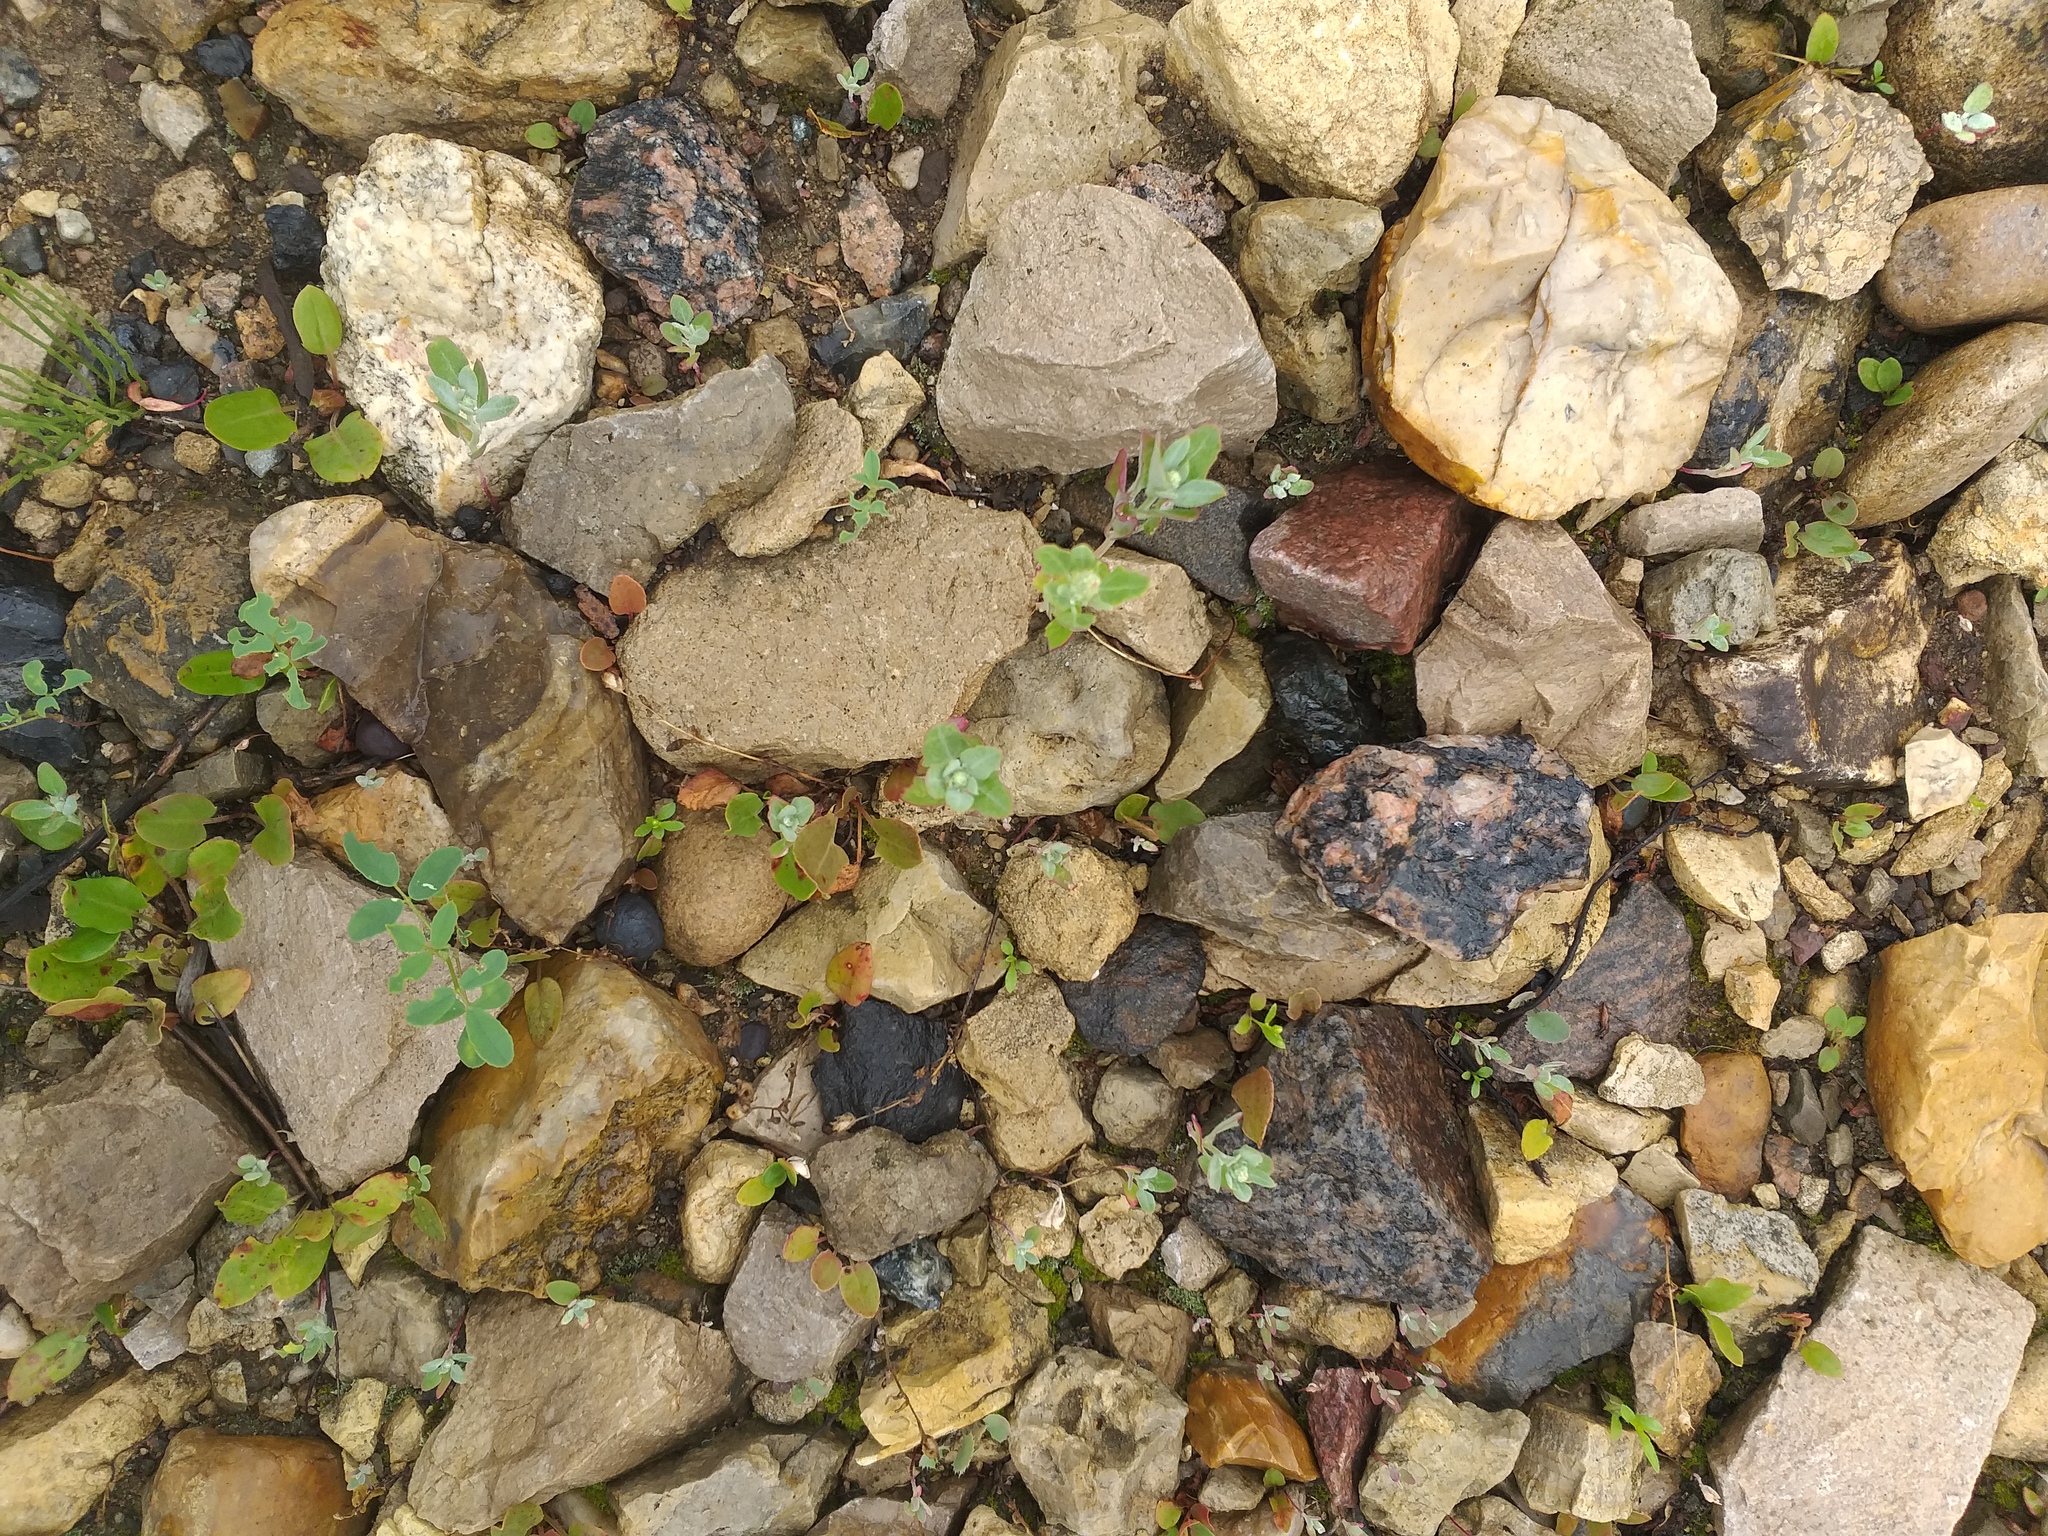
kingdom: Plantae
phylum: Tracheophyta
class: Magnoliopsida
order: Caryophyllales
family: Amaranthaceae
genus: Chenopodium
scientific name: Chenopodium album
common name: Fat-hen
